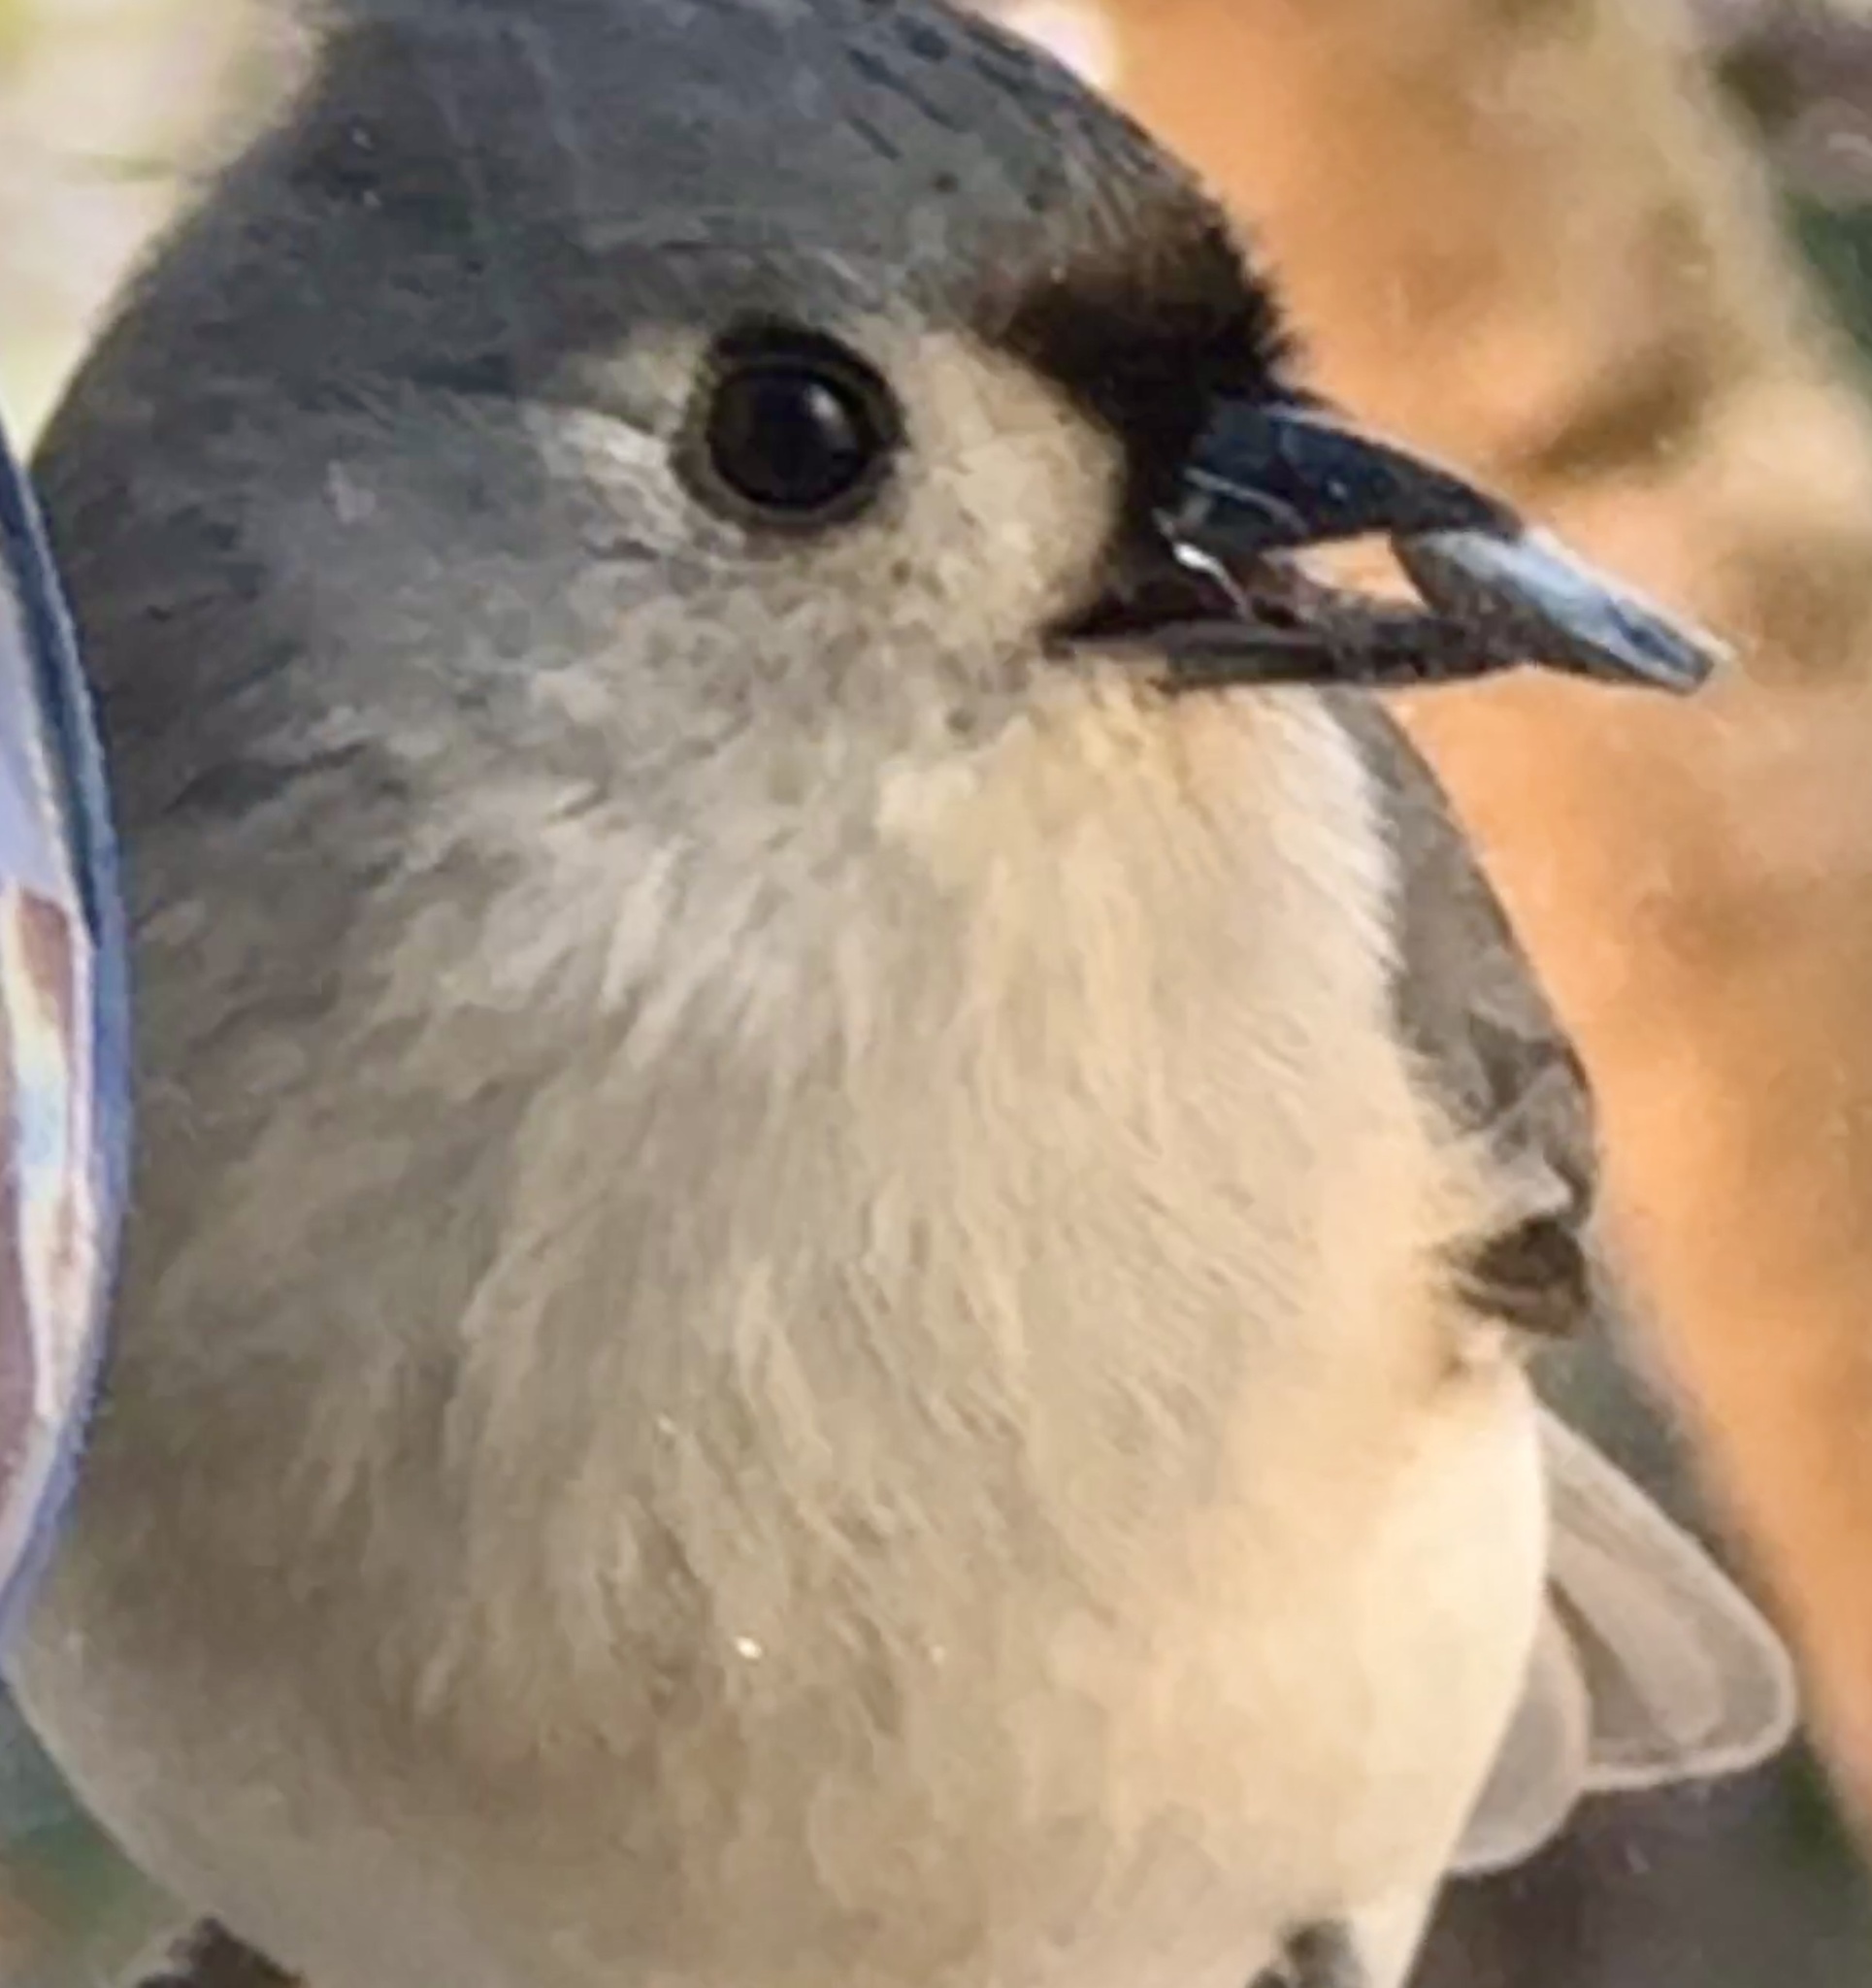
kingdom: Animalia
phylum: Chordata
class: Aves
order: Passeriformes
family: Paridae
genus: Baeolophus
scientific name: Baeolophus bicolor
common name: Tufted titmouse
